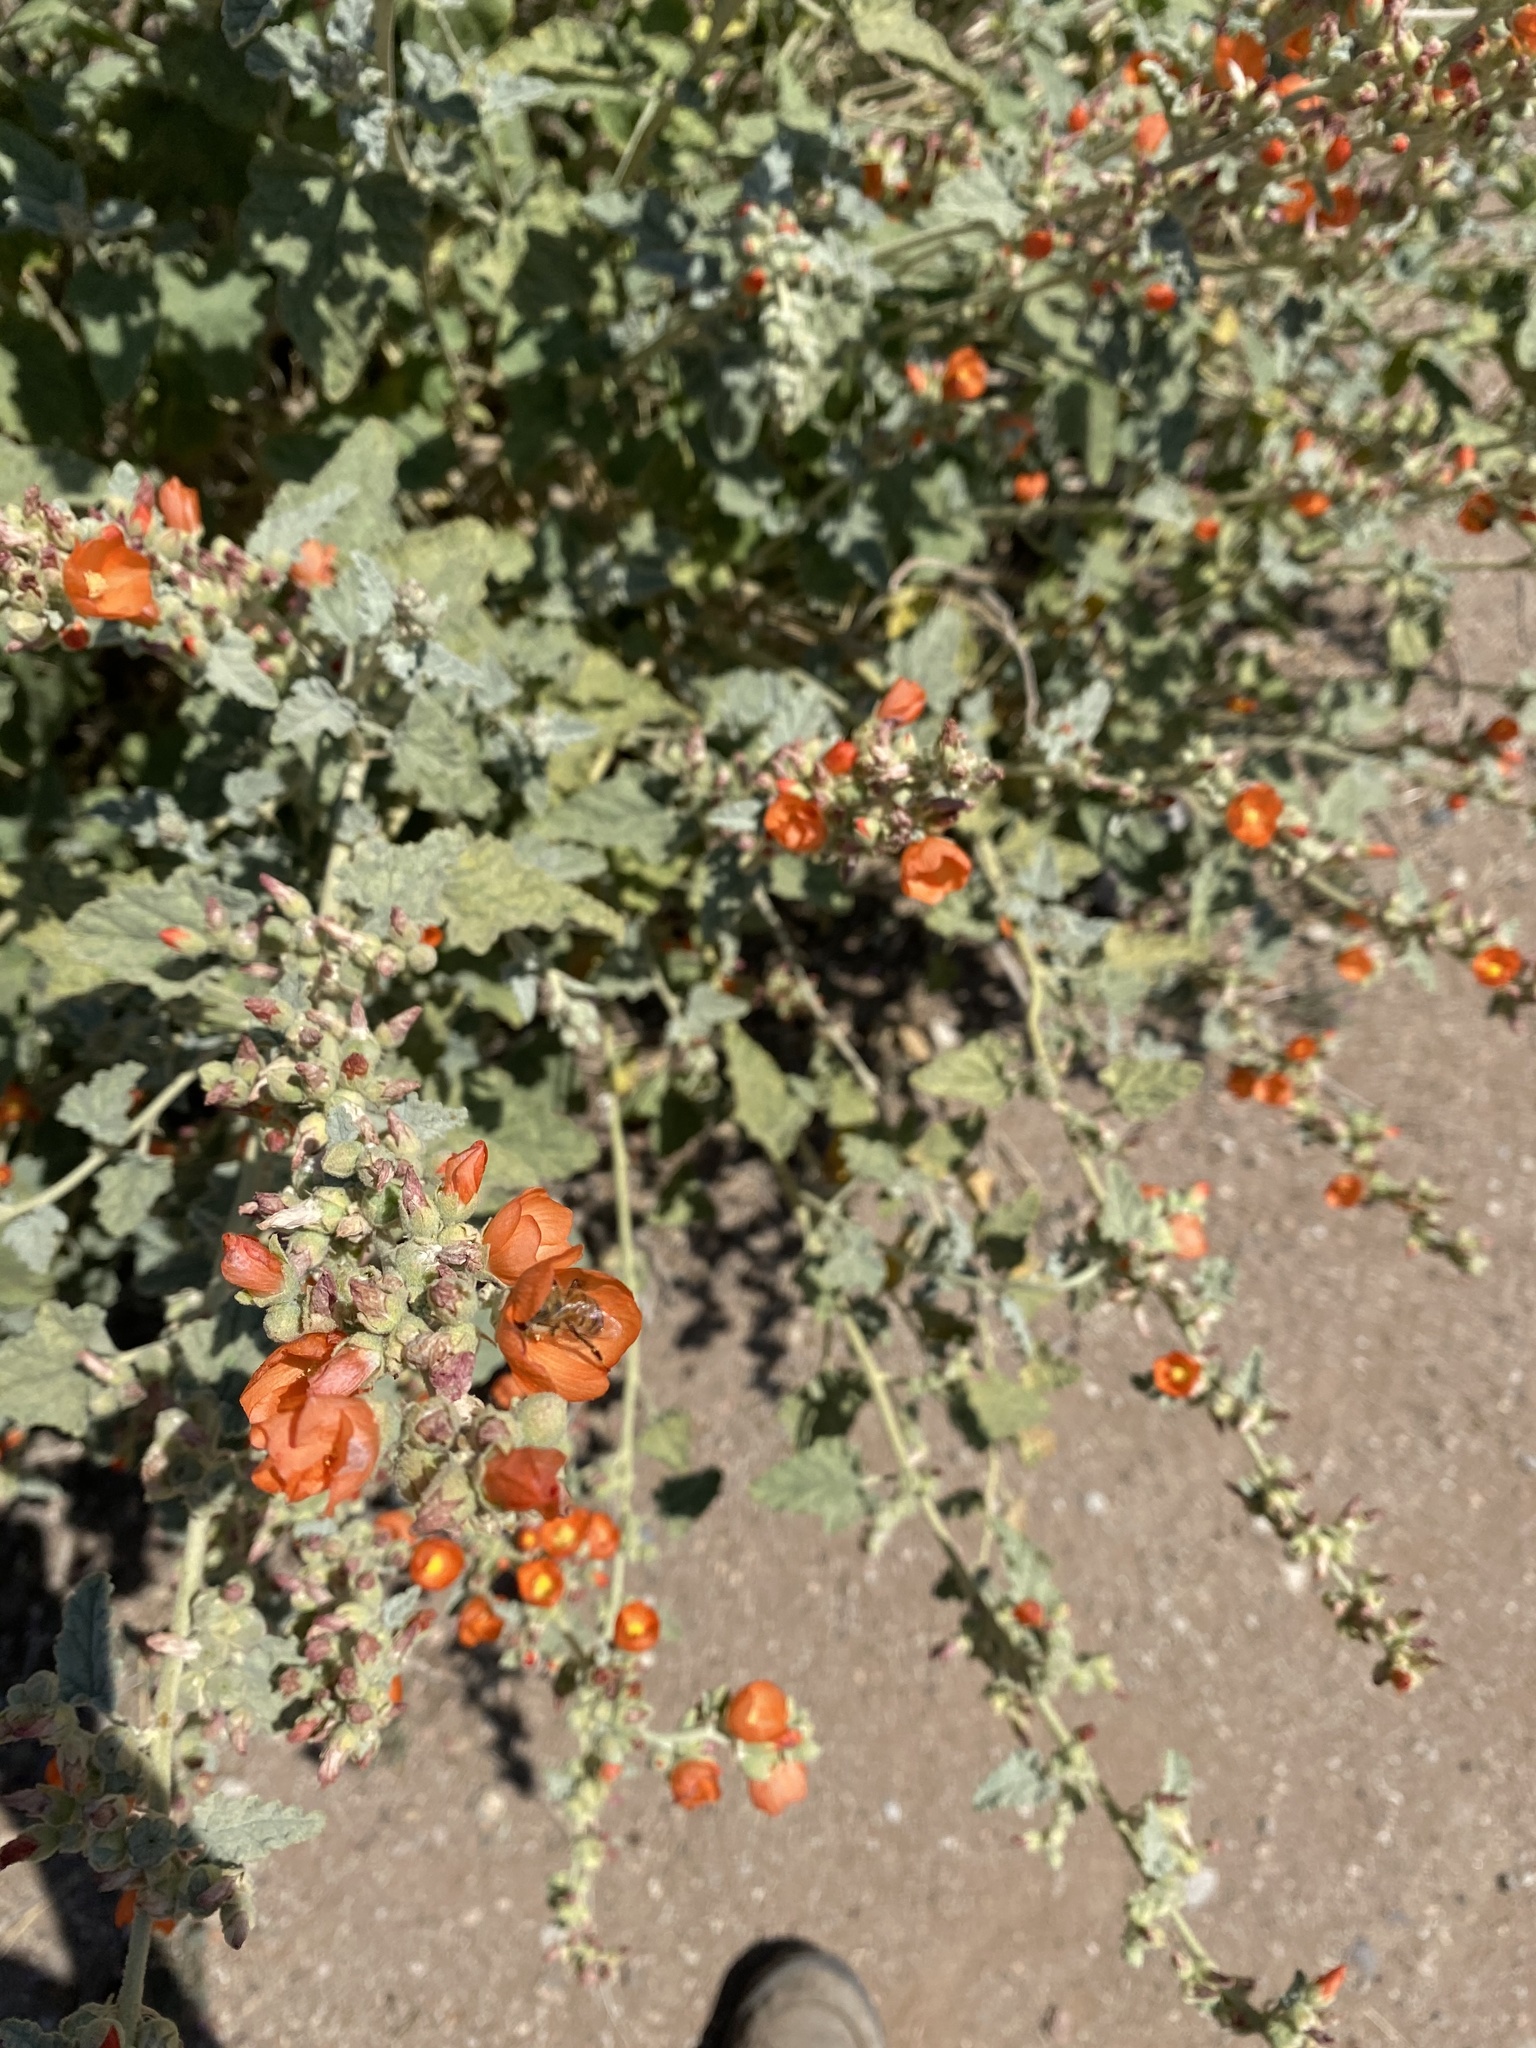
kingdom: Animalia
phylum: Arthropoda
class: Insecta
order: Hymenoptera
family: Apidae
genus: Apis
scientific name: Apis mellifera
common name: Honey bee
